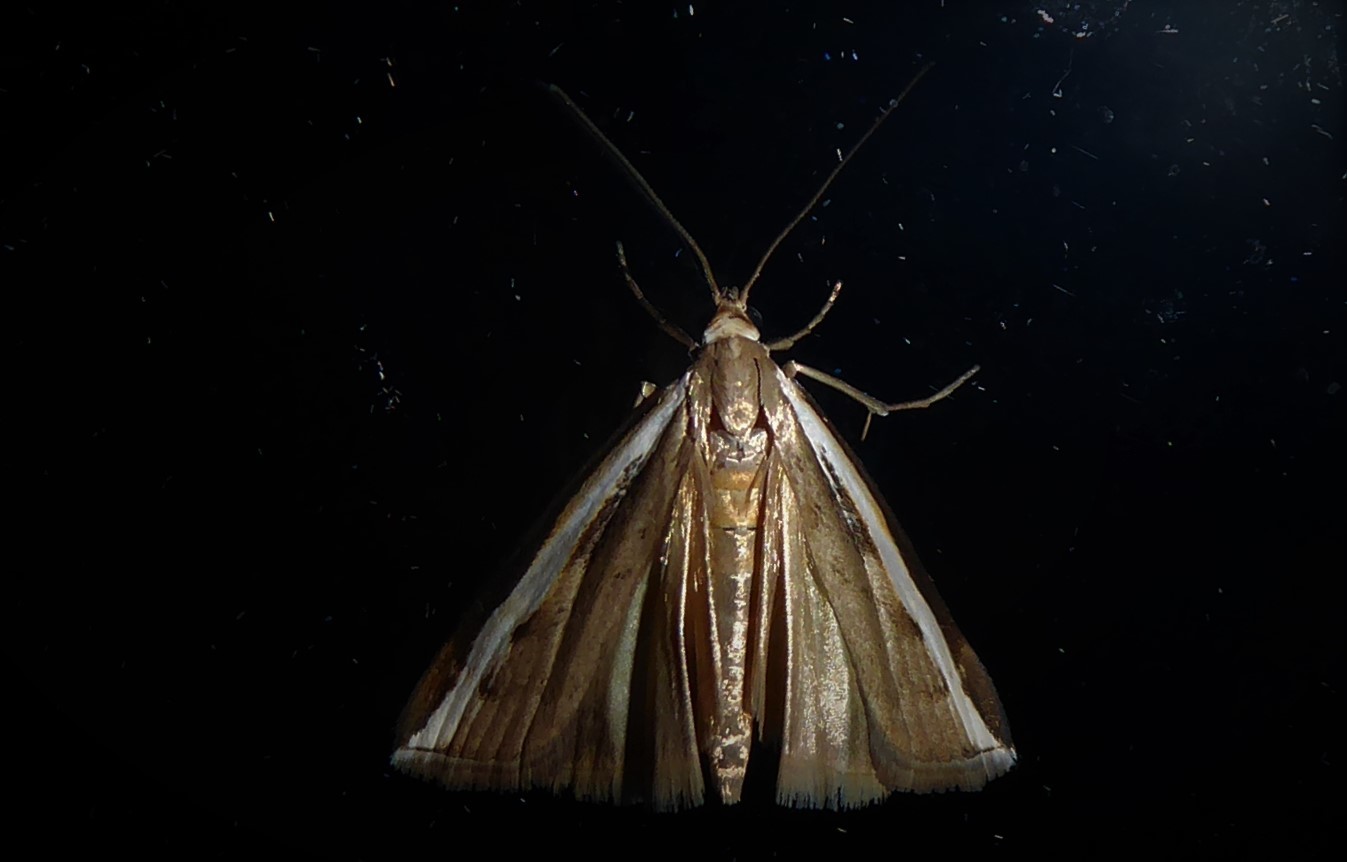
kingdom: Animalia
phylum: Arthropoda
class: Insecta
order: Lepidoptera
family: Crambidae
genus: Orocrambus
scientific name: Orocrambus flexuosellus
